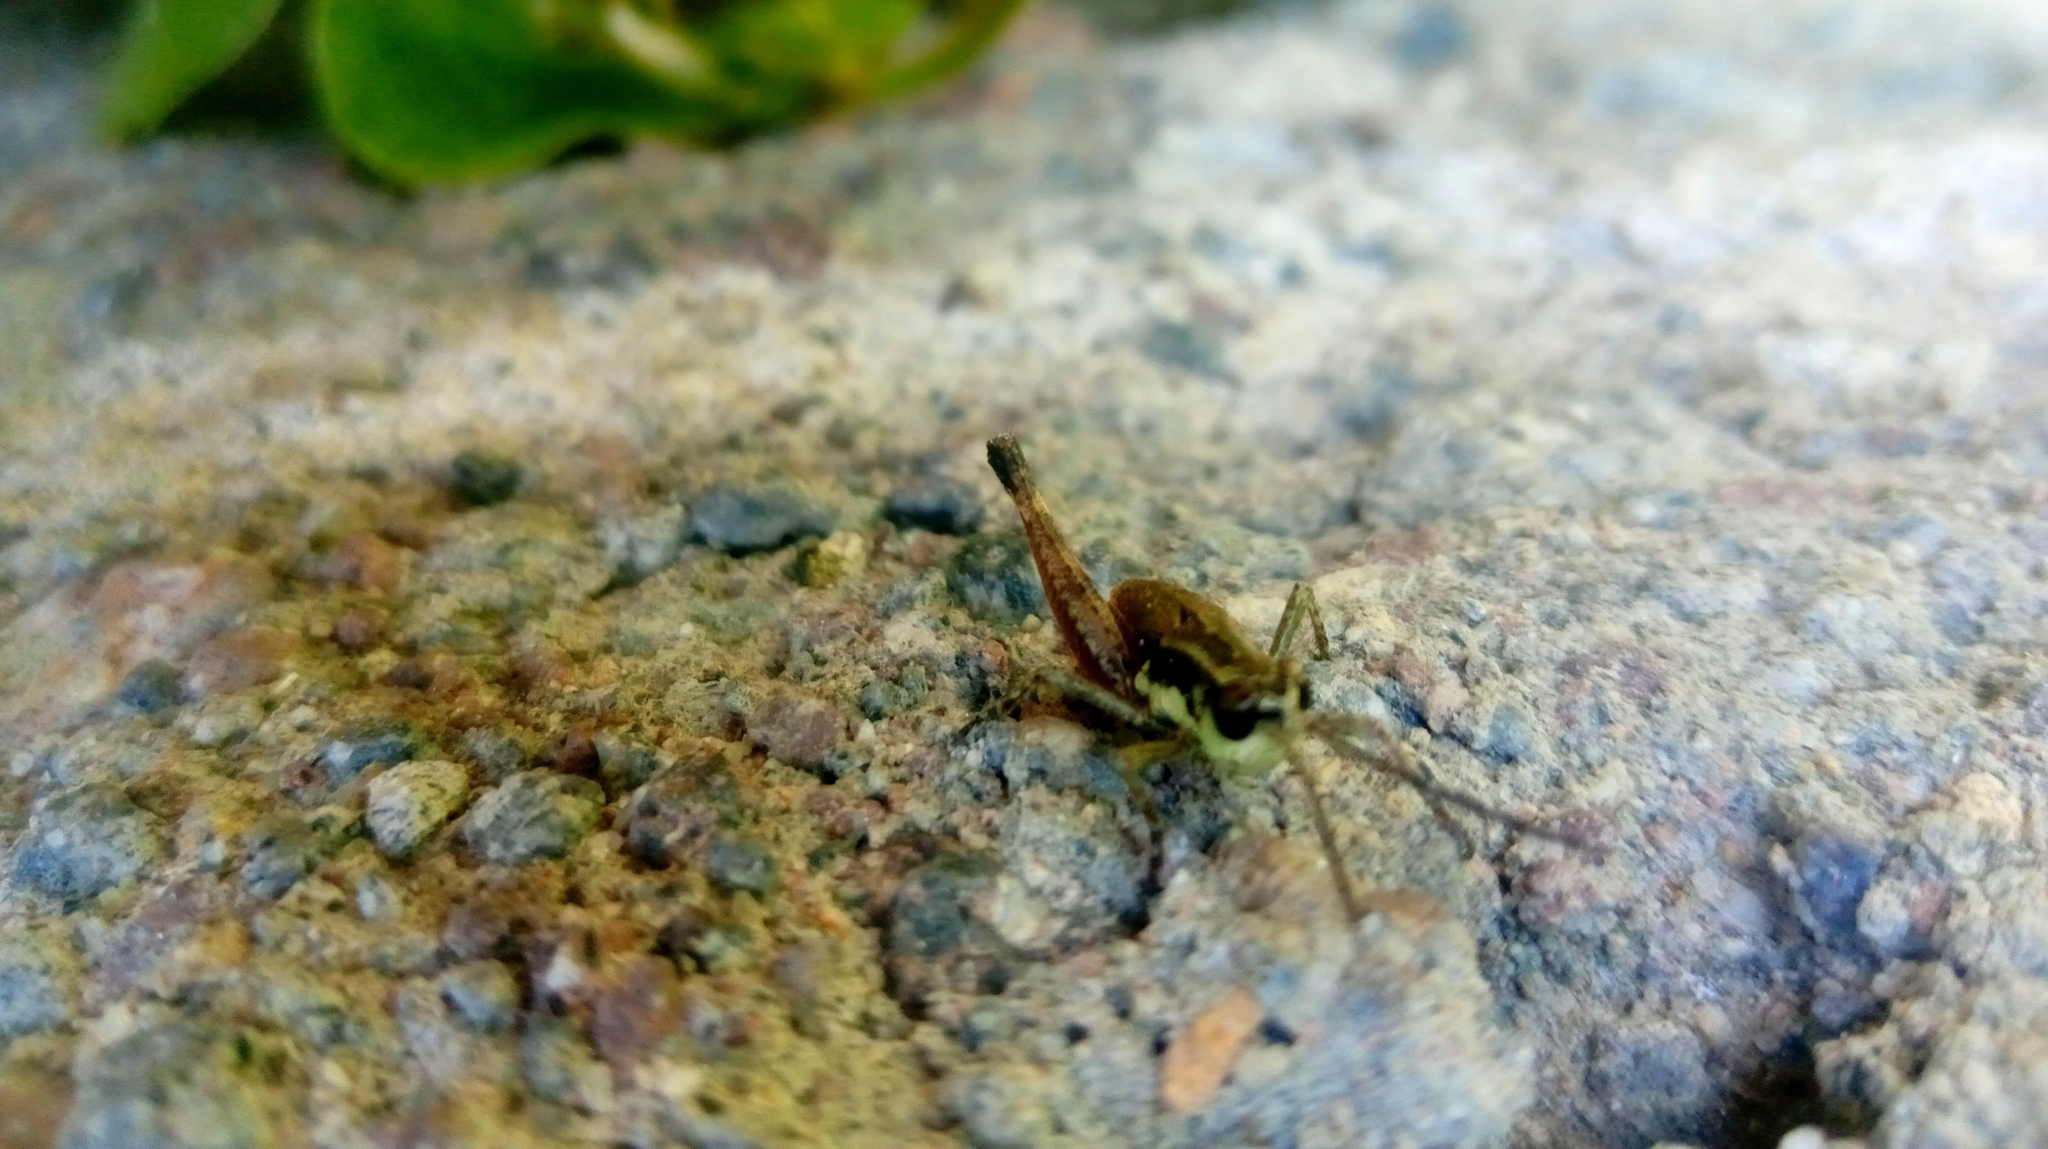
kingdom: Animalia
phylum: Arthropoda
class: Insecta
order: Orthoptera
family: Acrididae
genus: Boopedon
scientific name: Boopedon rufipes
